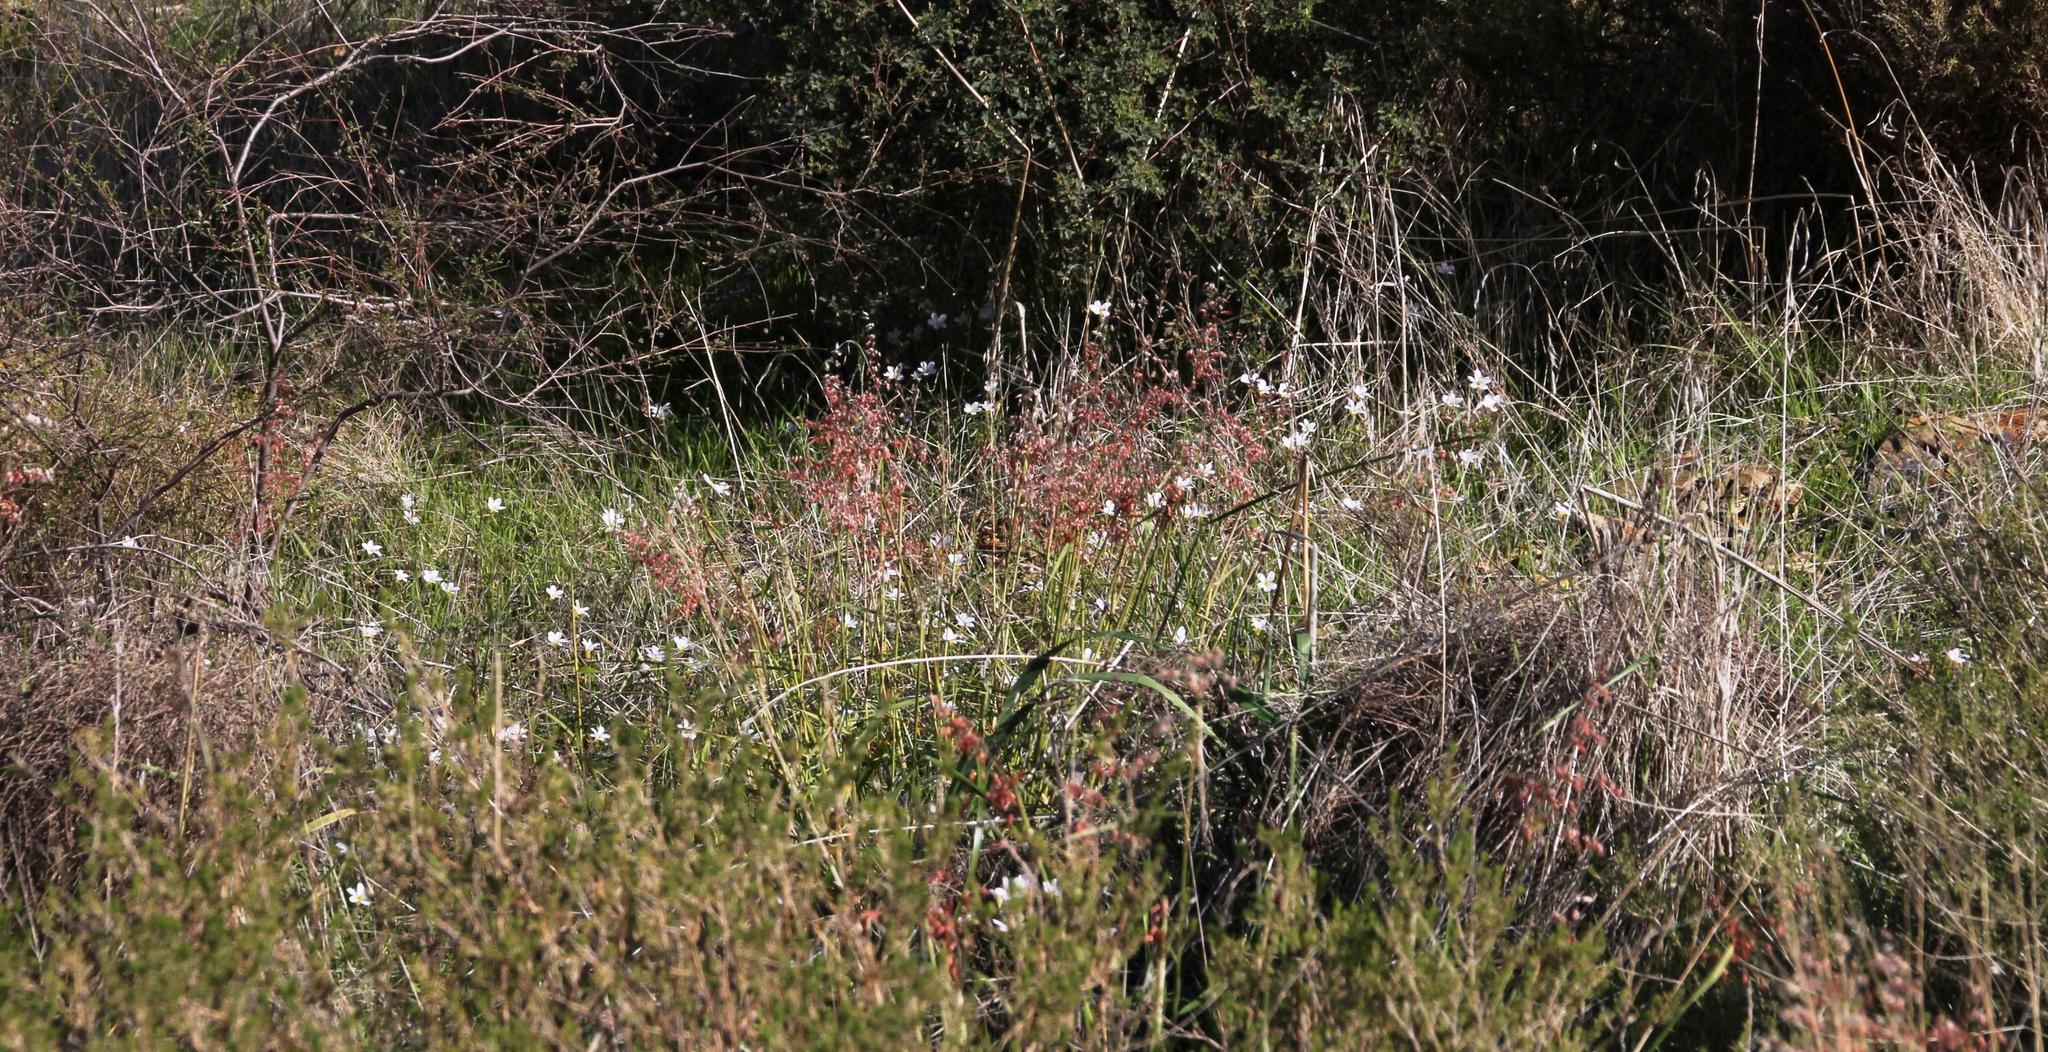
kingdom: Plantae
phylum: Tracheophyta
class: Magnoliopsida
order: Oxalidales
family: Oxalidaceae
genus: Oxalis
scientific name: Oxalis tenella
